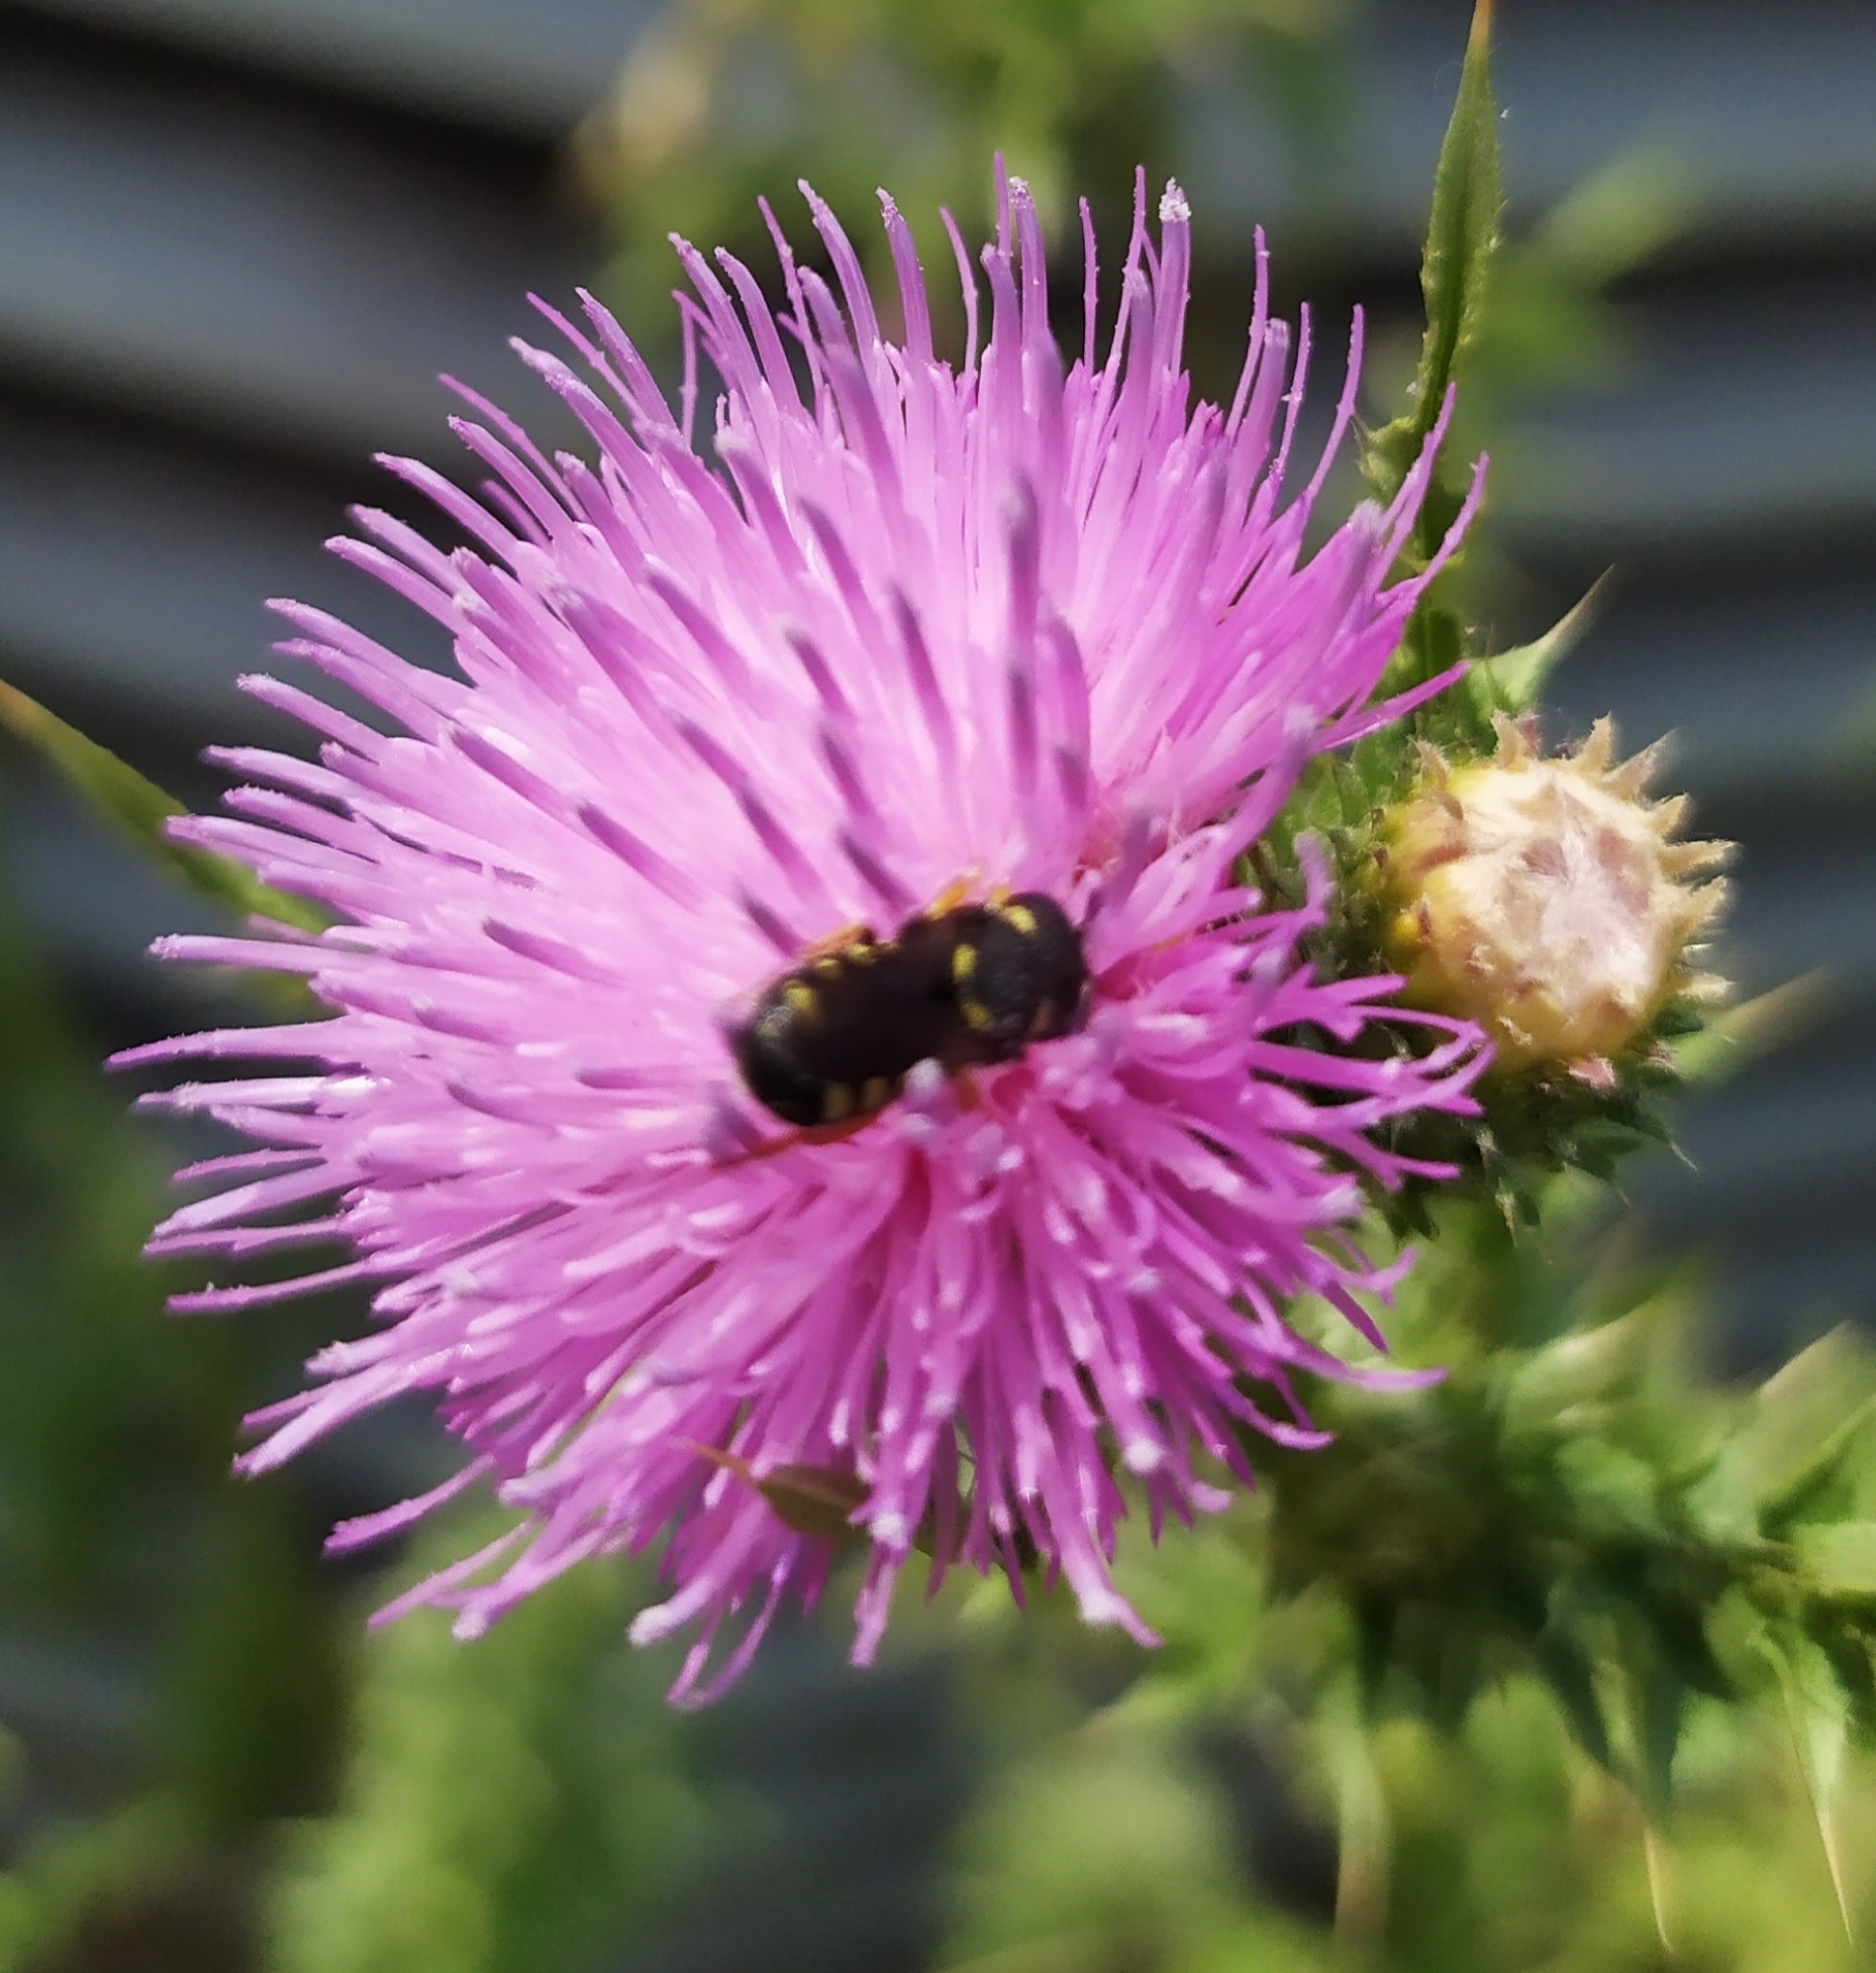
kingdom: Animalia
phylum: Arthropoda
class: Insecta
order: Hymenoptera
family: Megachilidae
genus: Pseudoanthidium
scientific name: Pseudoanthidium nanum
